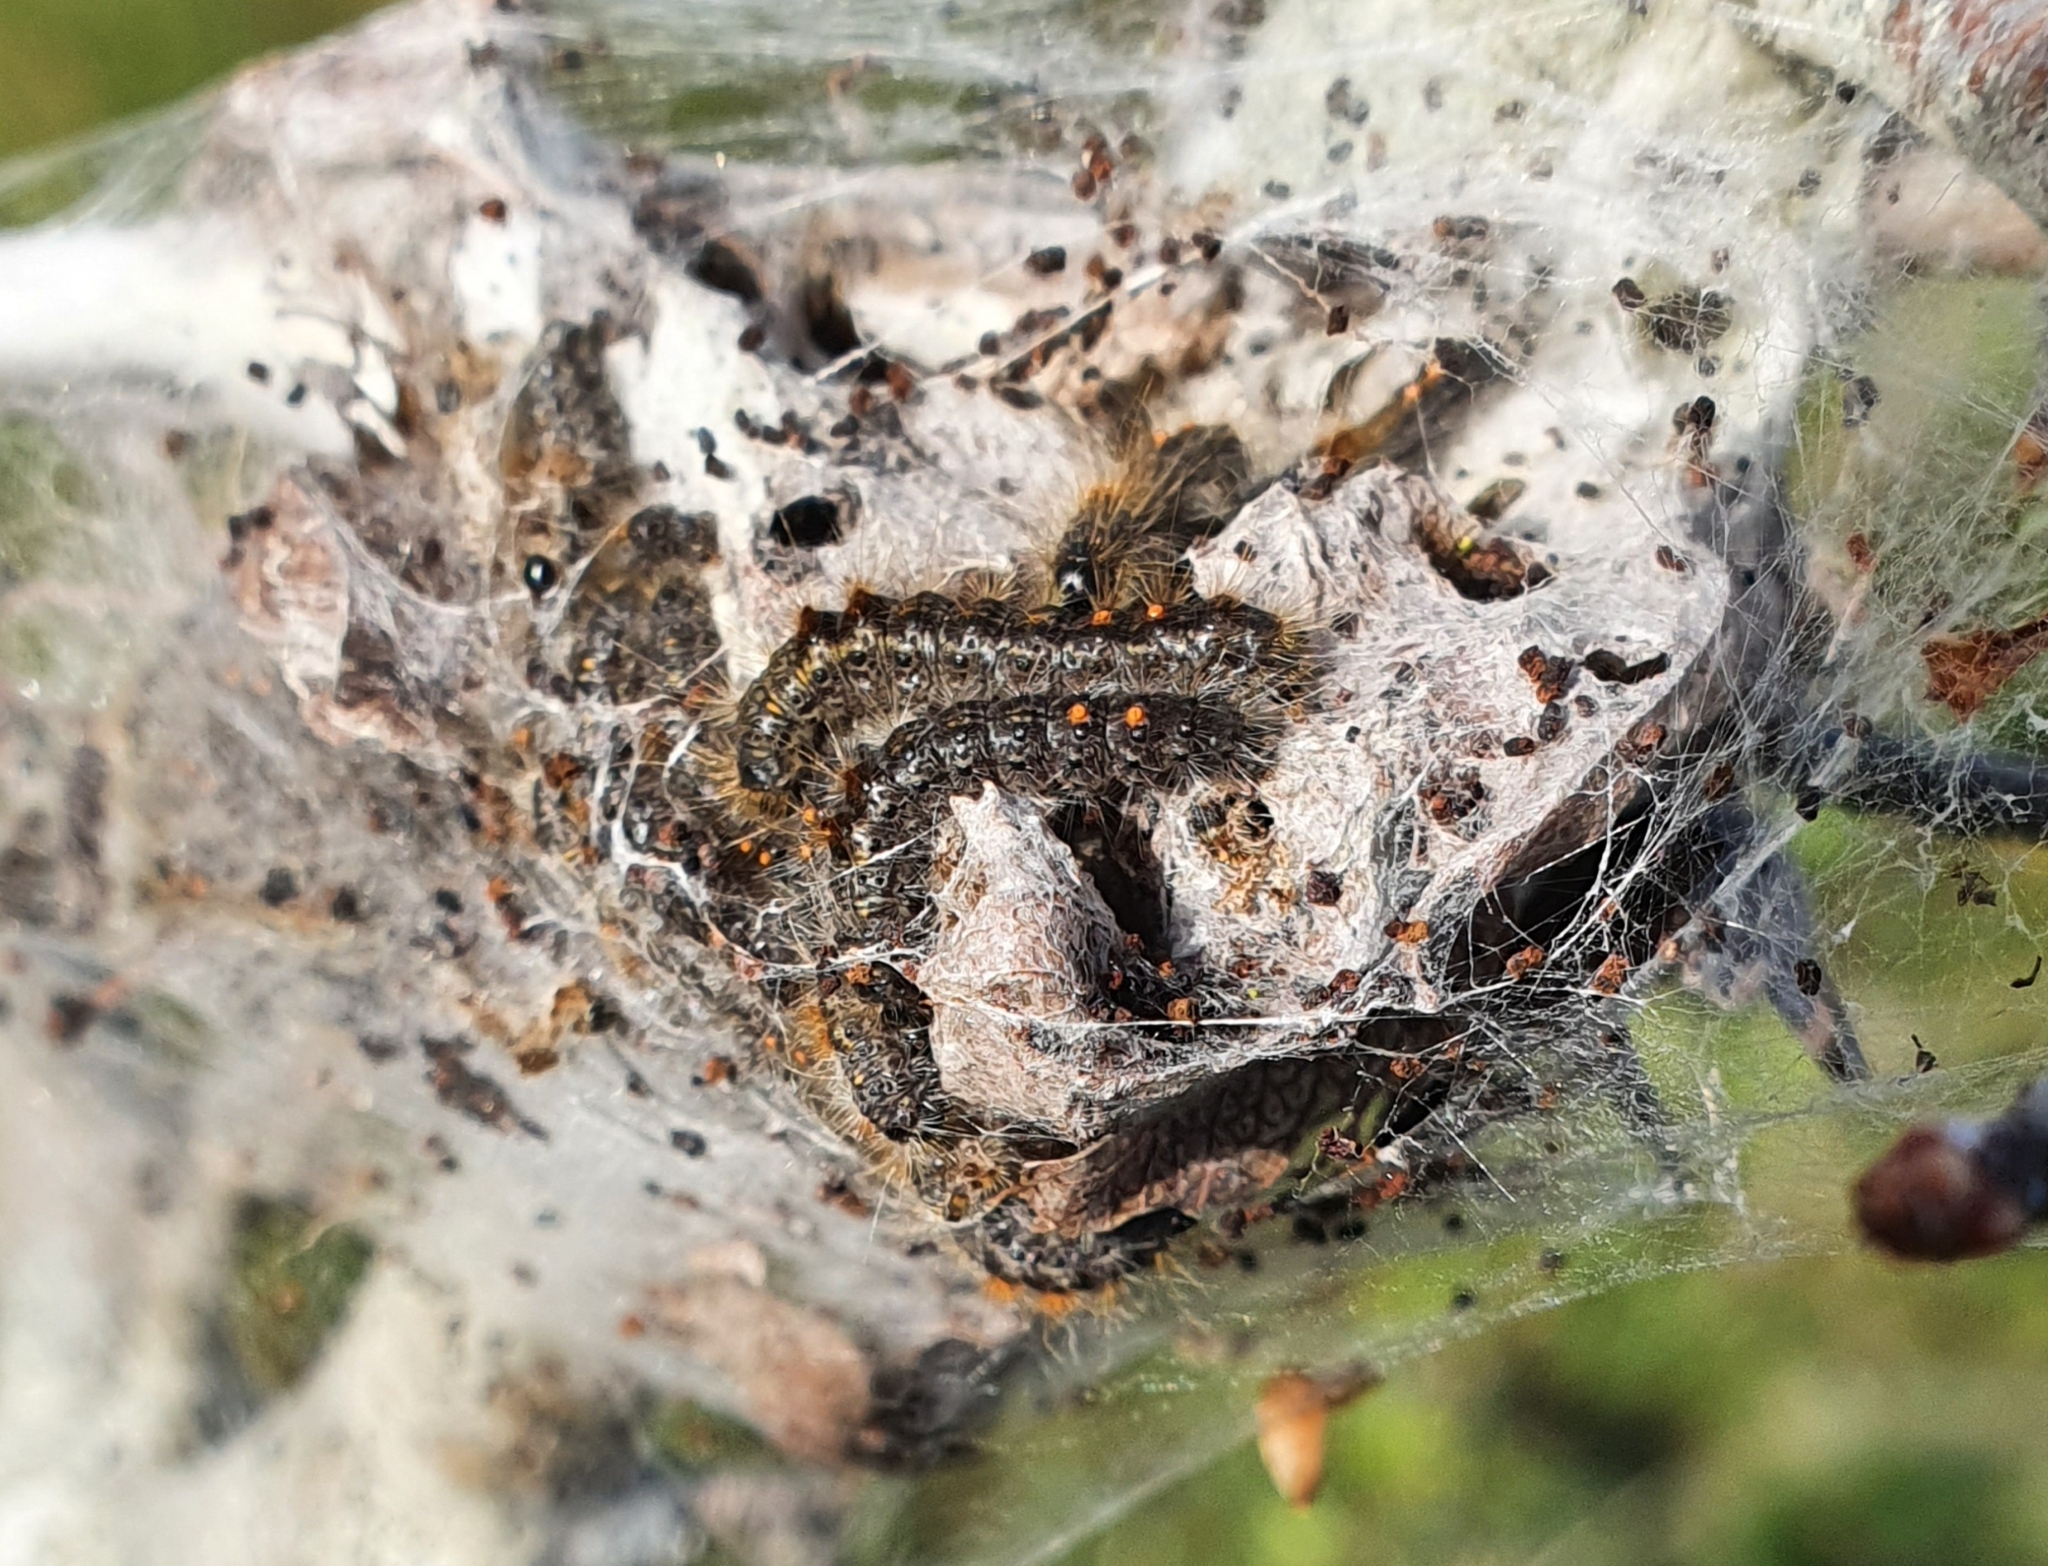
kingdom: Animalia
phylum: Arthropoda
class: Insecta
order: Lepidoptera
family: Erebidae
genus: Euproctis
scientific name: Euproctis chrysorrhoea
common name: Brown-tail
